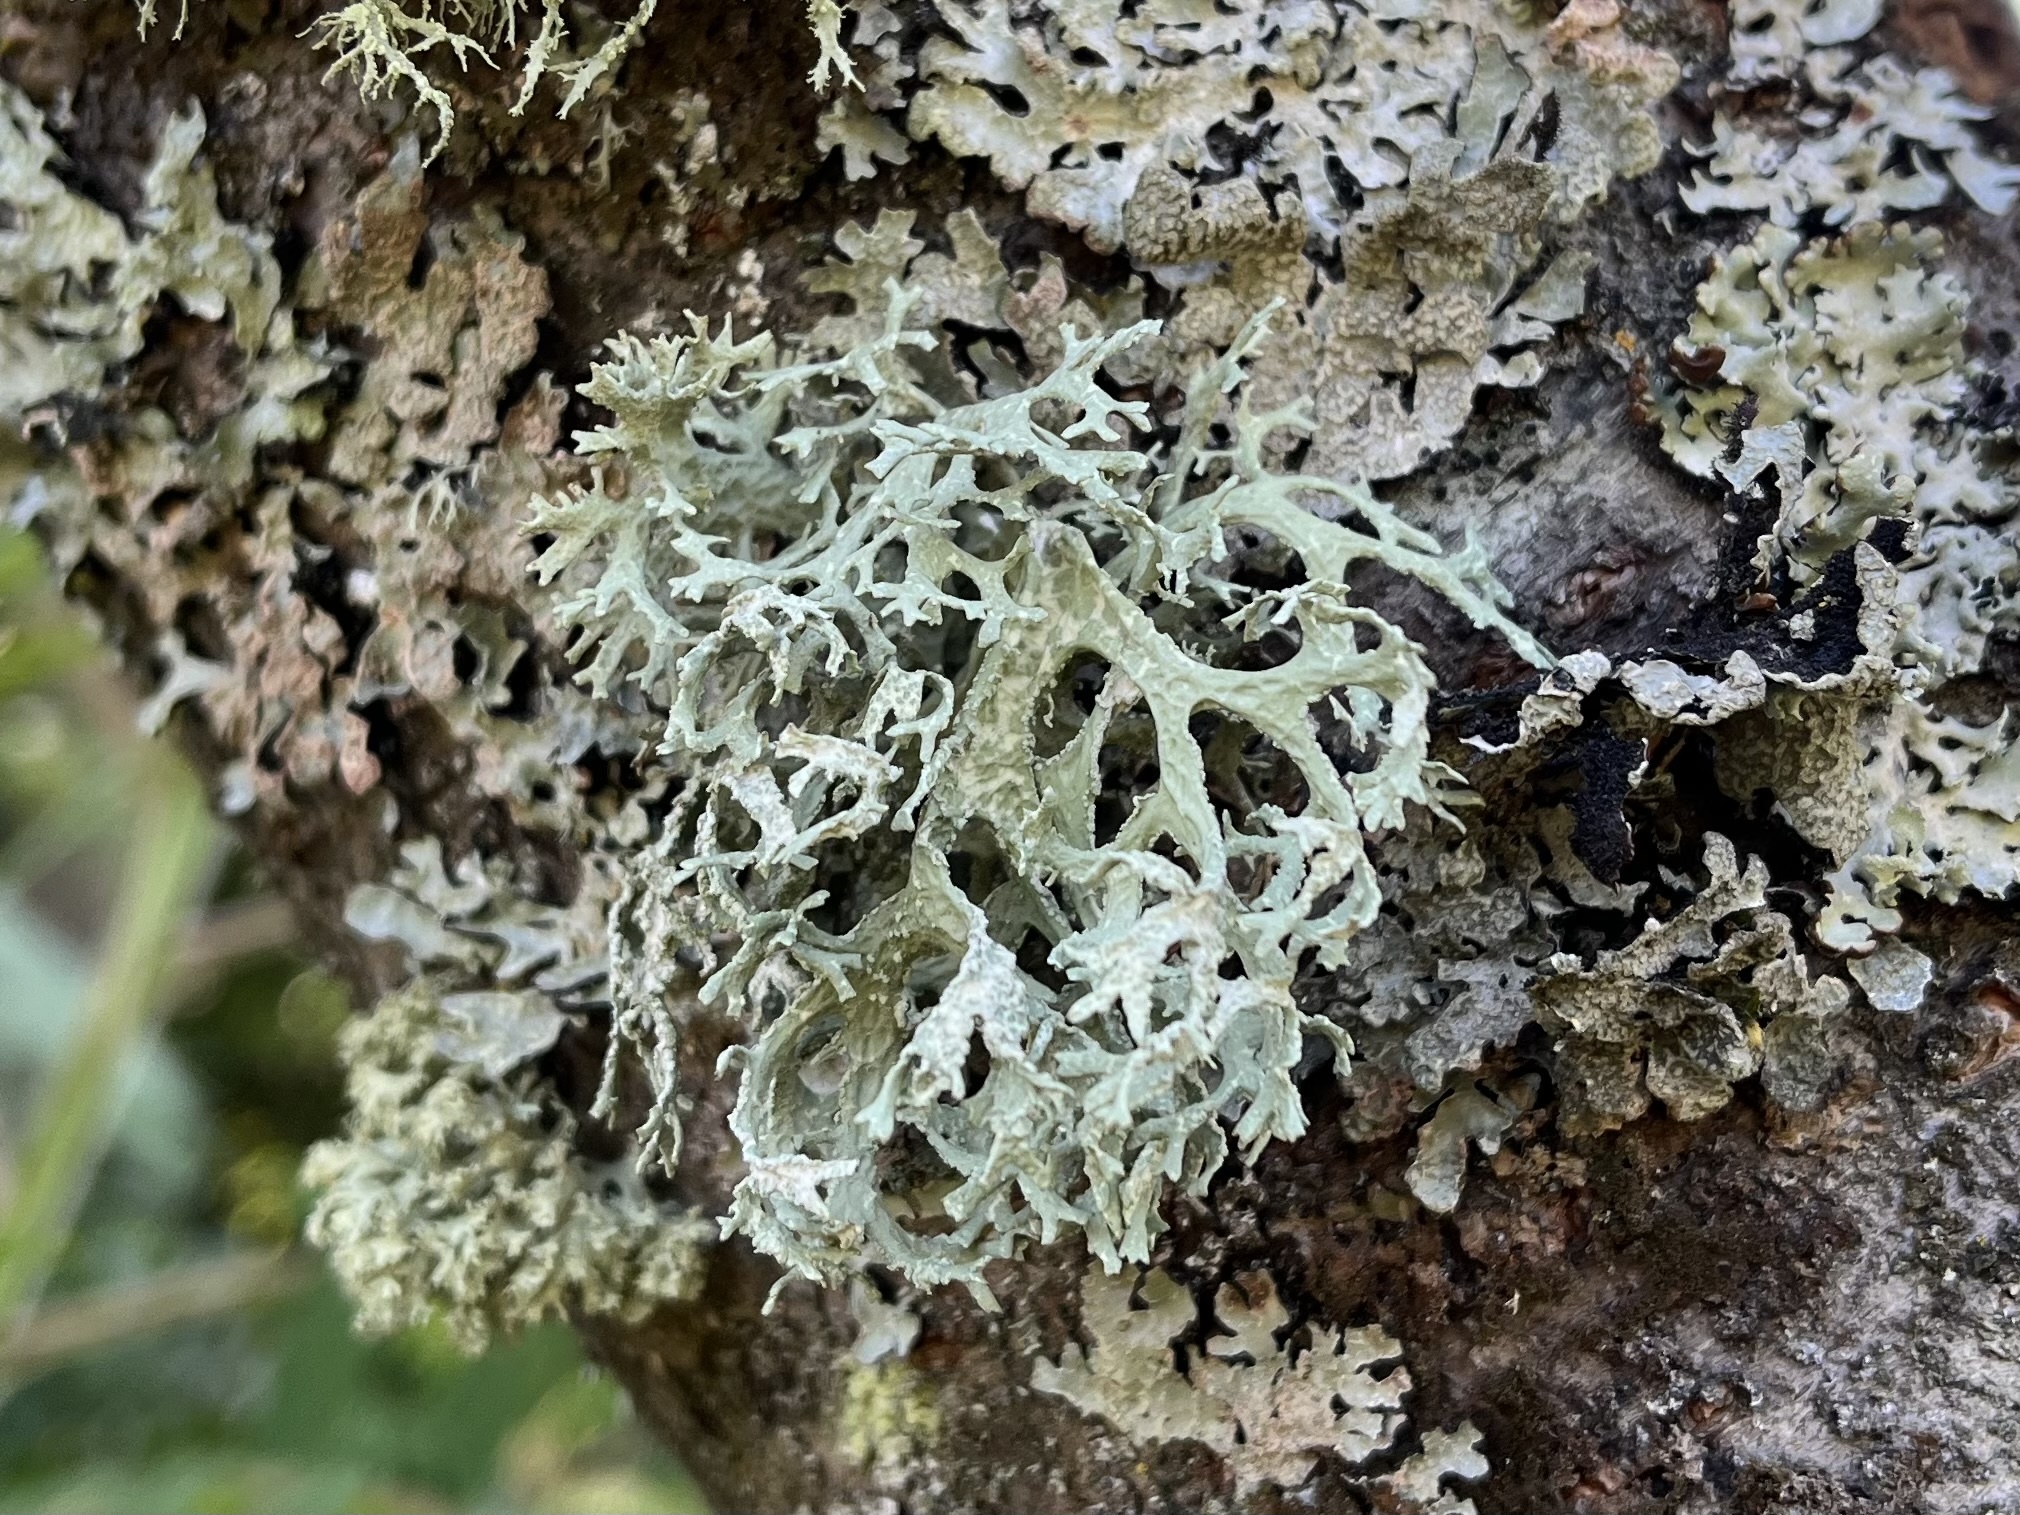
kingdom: Fungi
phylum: Ascomycota
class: Lecanoromycetes
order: Lecanorales
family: Parmeliaceae
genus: Evernia
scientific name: Evernia prunastri
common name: Oak moss
